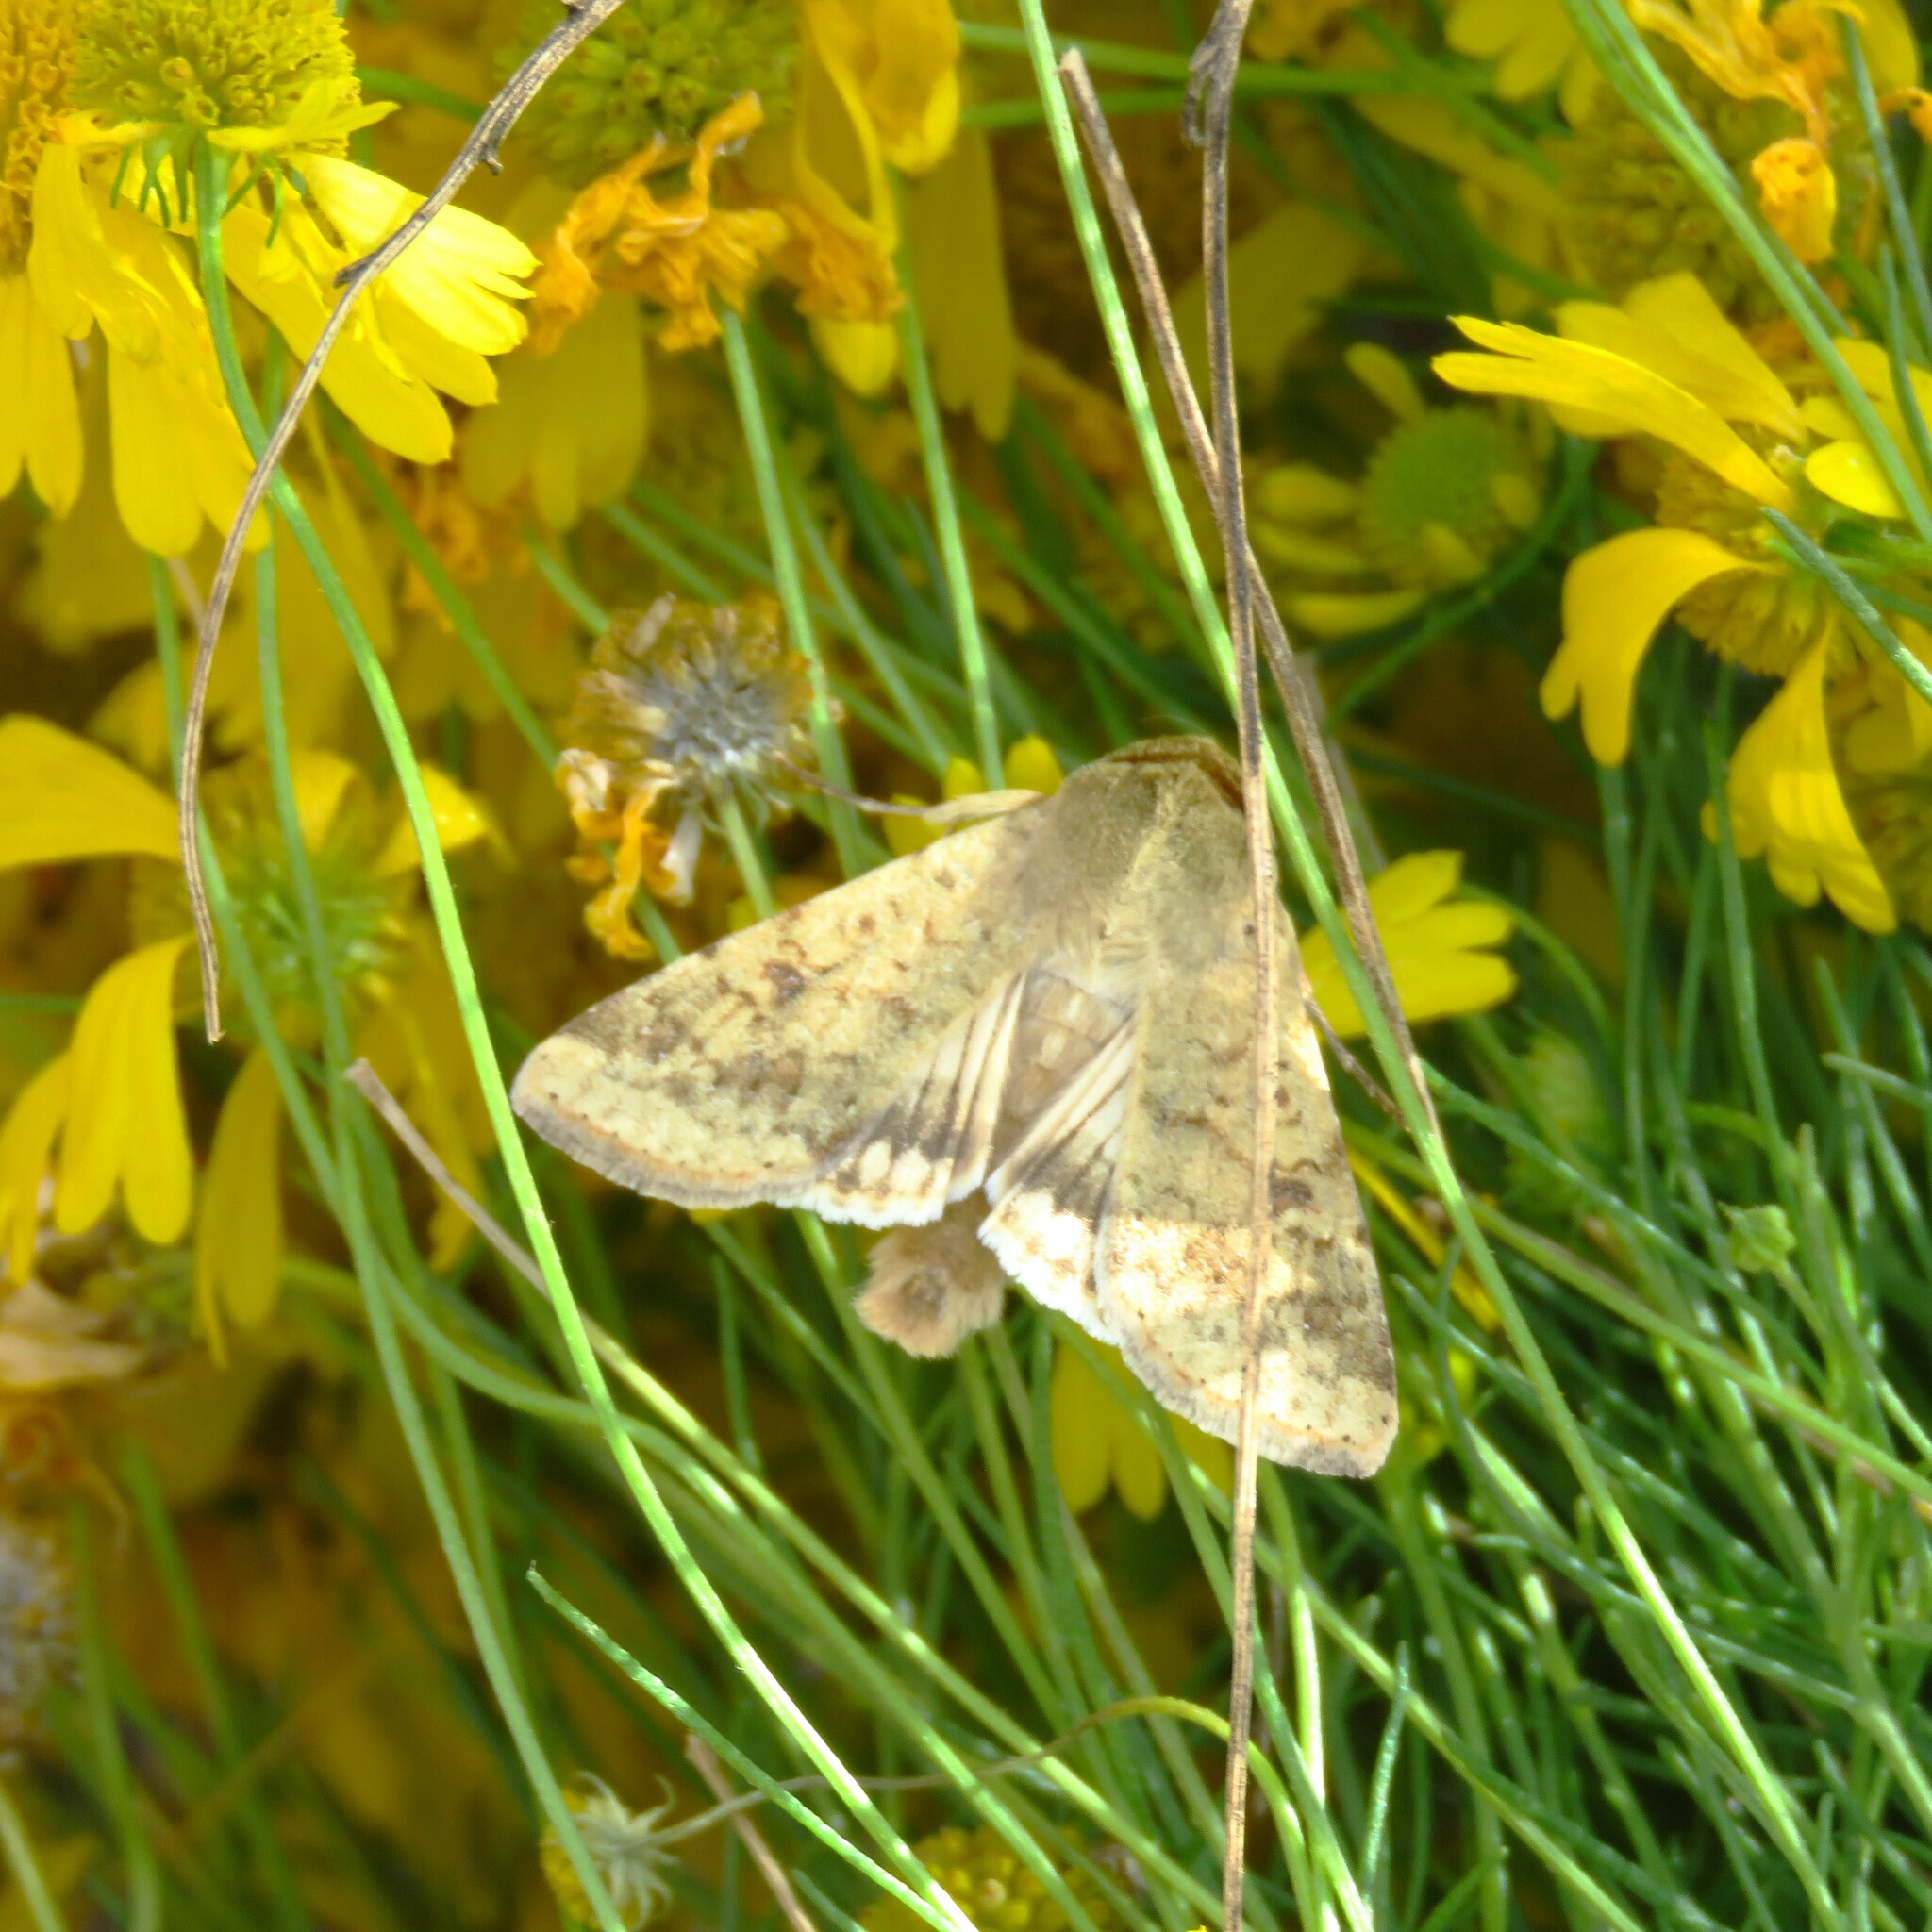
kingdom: Animalia
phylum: Arthropoda
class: Insecta
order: Lepidoptera
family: Noctuidae
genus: Helicoverpa
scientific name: Helicoverpa zea
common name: Bollworm
